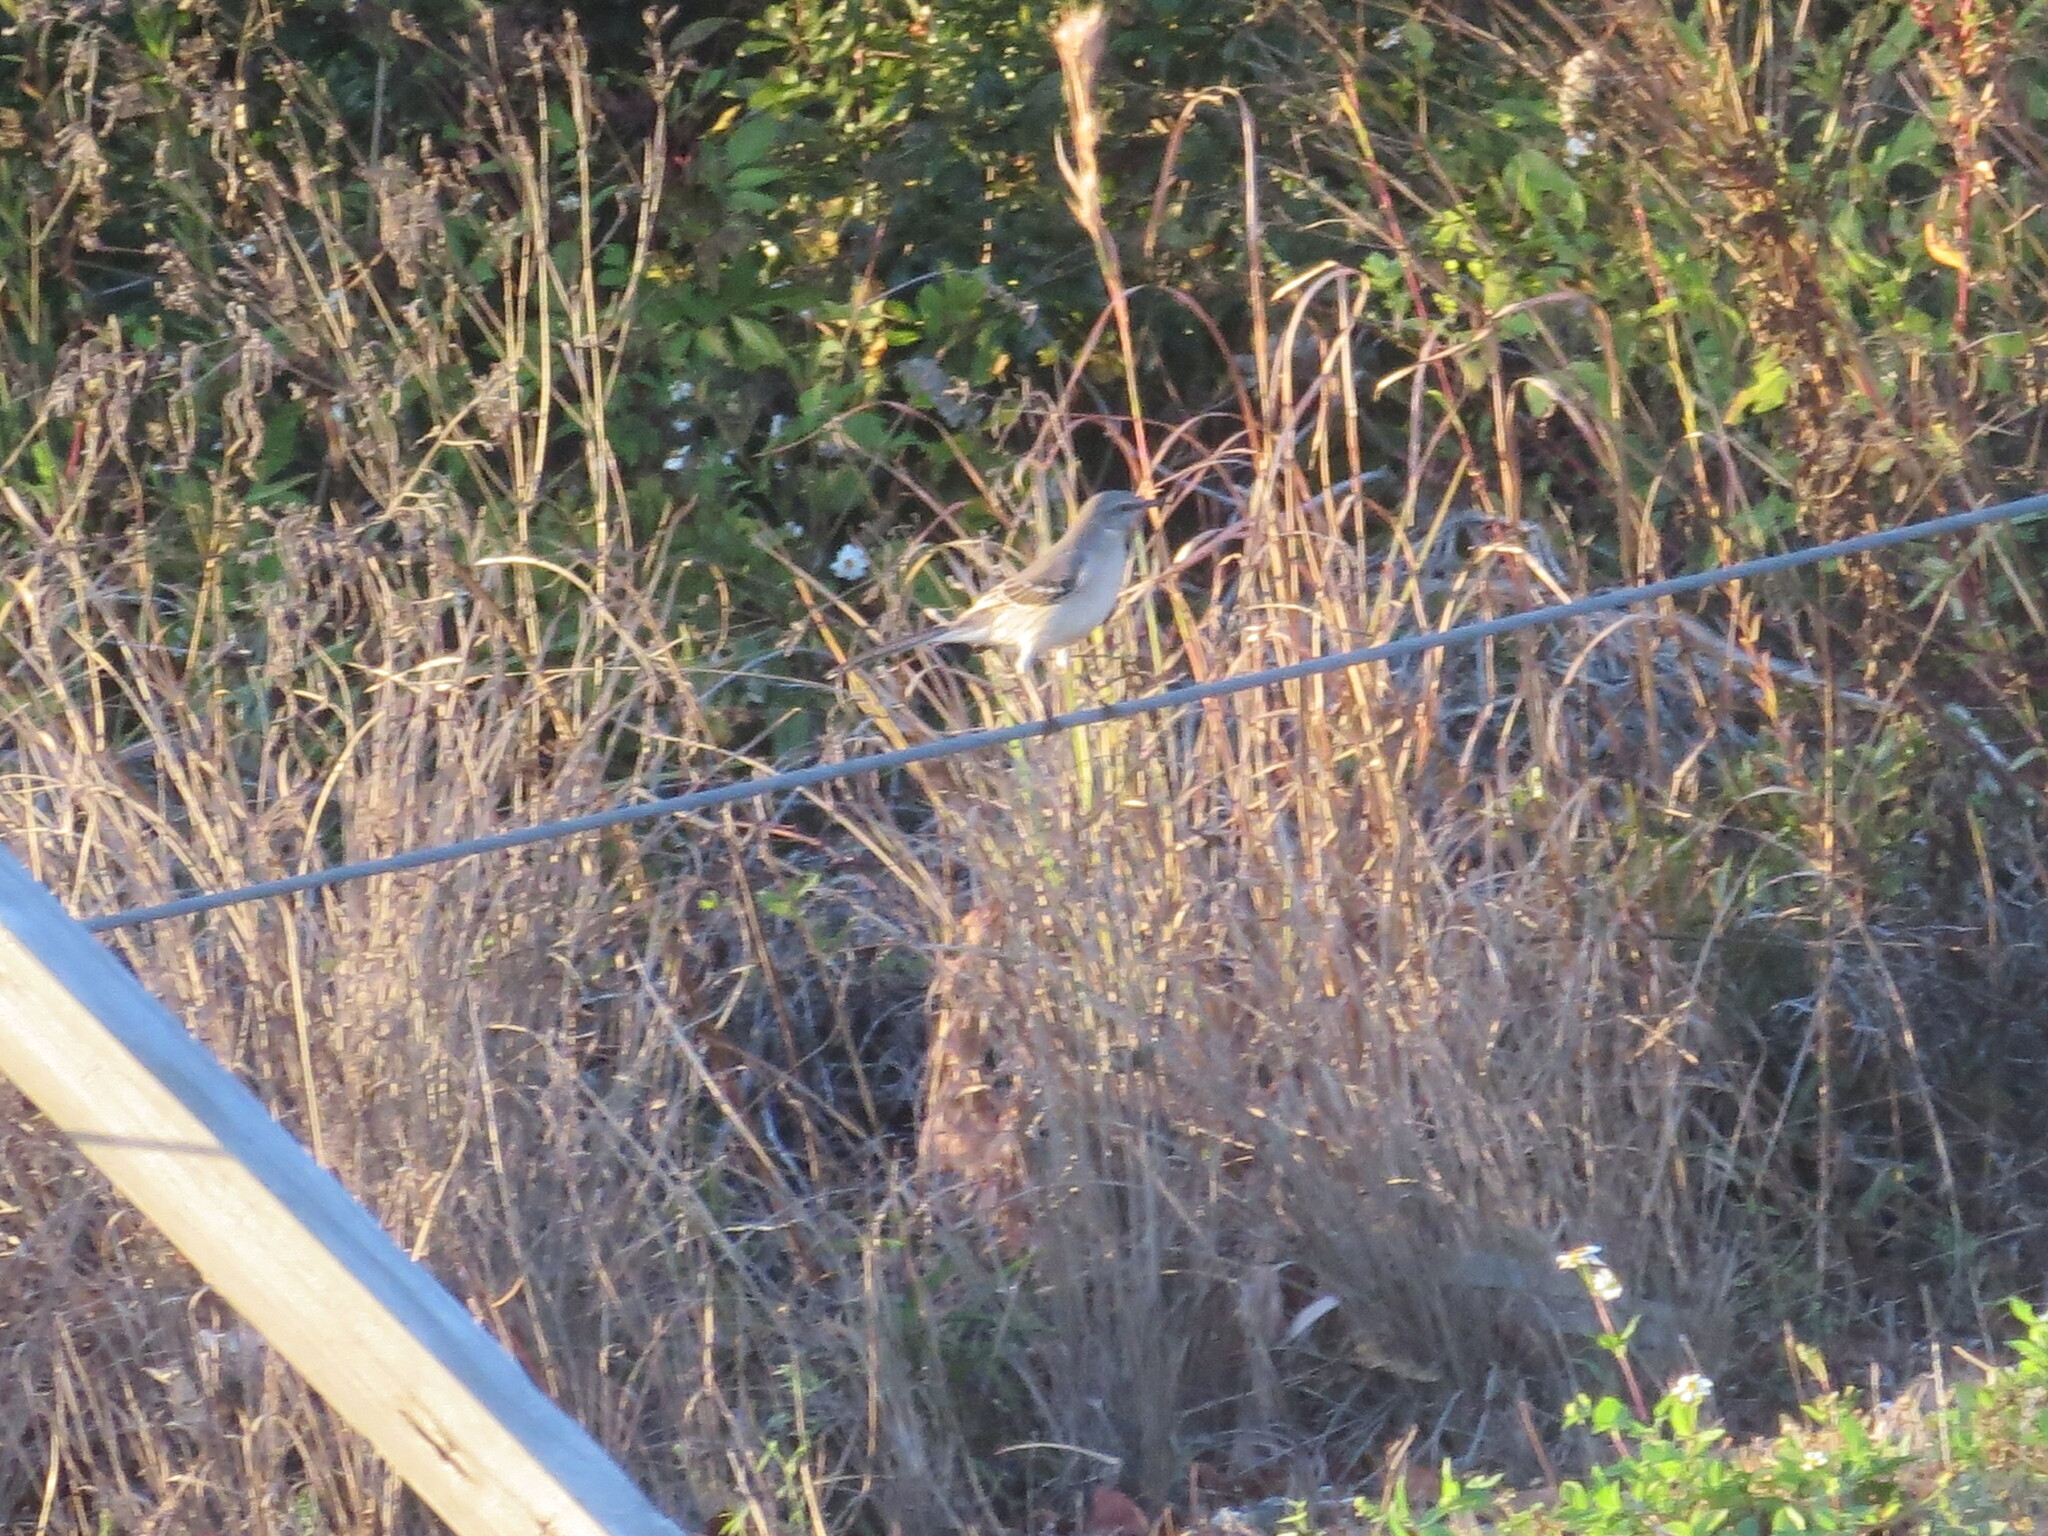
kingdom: Animalia
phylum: Chordata
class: Aves
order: Passeriformes
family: Mimidae
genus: Mimus
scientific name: Mimus polyglottos
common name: Northern mockingbird
